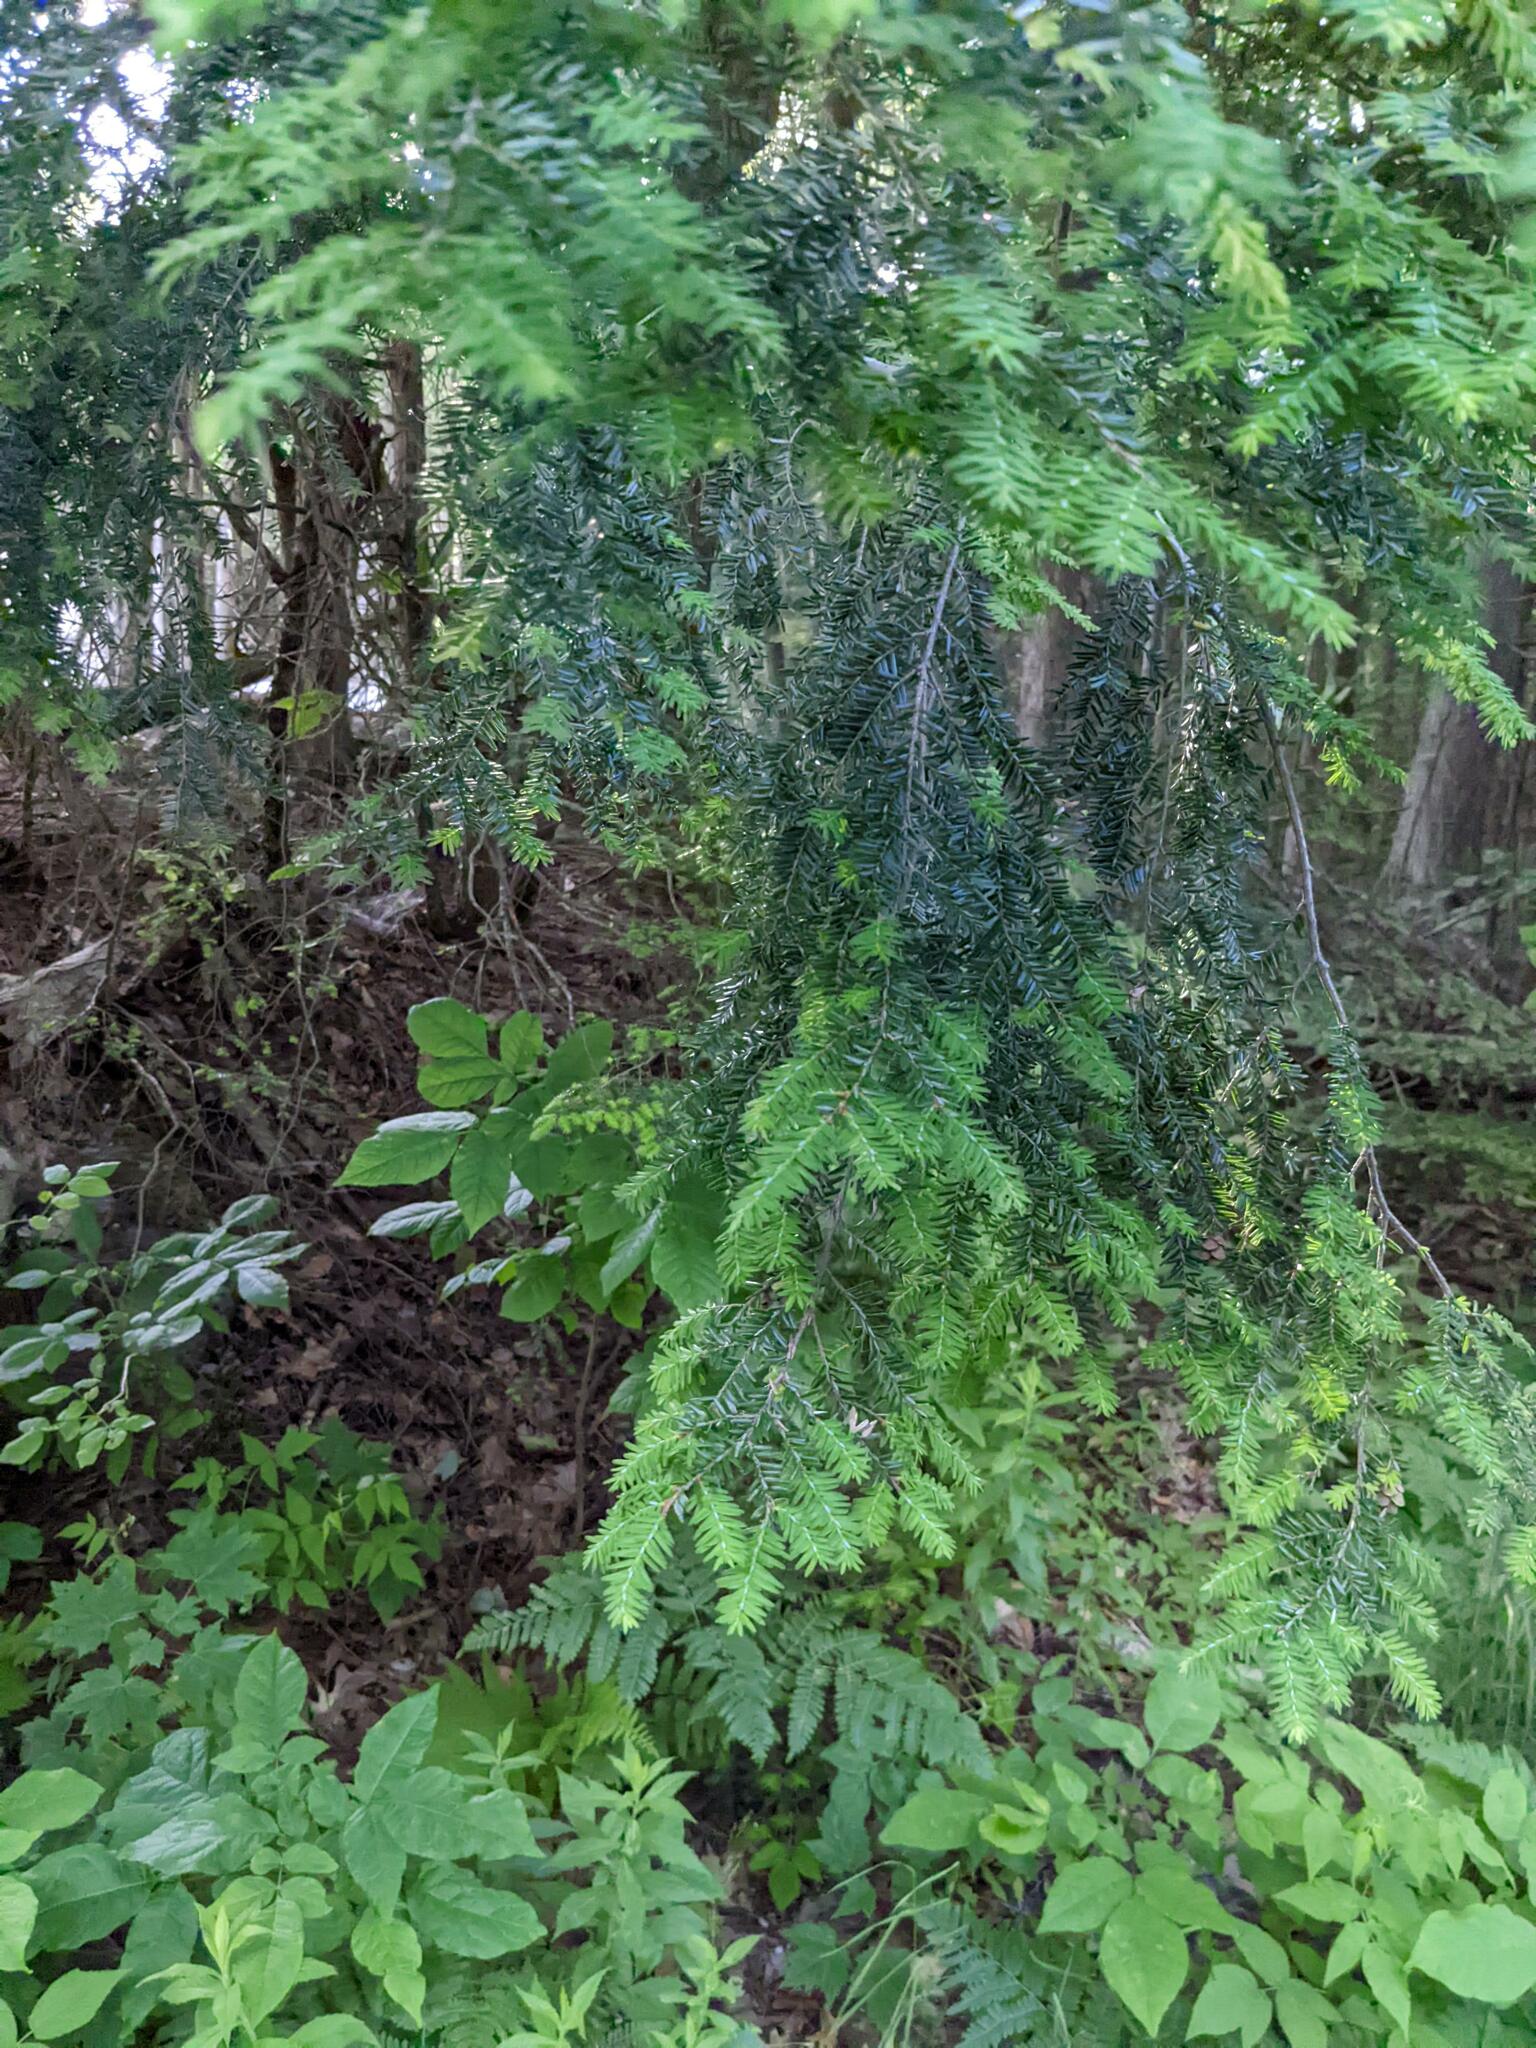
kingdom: Plantae
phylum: Tracheophyta
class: Pinopsida
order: Pinales
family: Pinaceae
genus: Tsuga
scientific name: Tsuga canadensis
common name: Eastern hemlock
